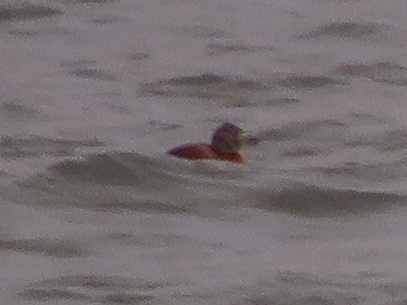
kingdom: Animalia
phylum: Chordata
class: Aves
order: Anseriformes
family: Anatidae
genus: Oxyura
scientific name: Oxyura vittata
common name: Lake duck
